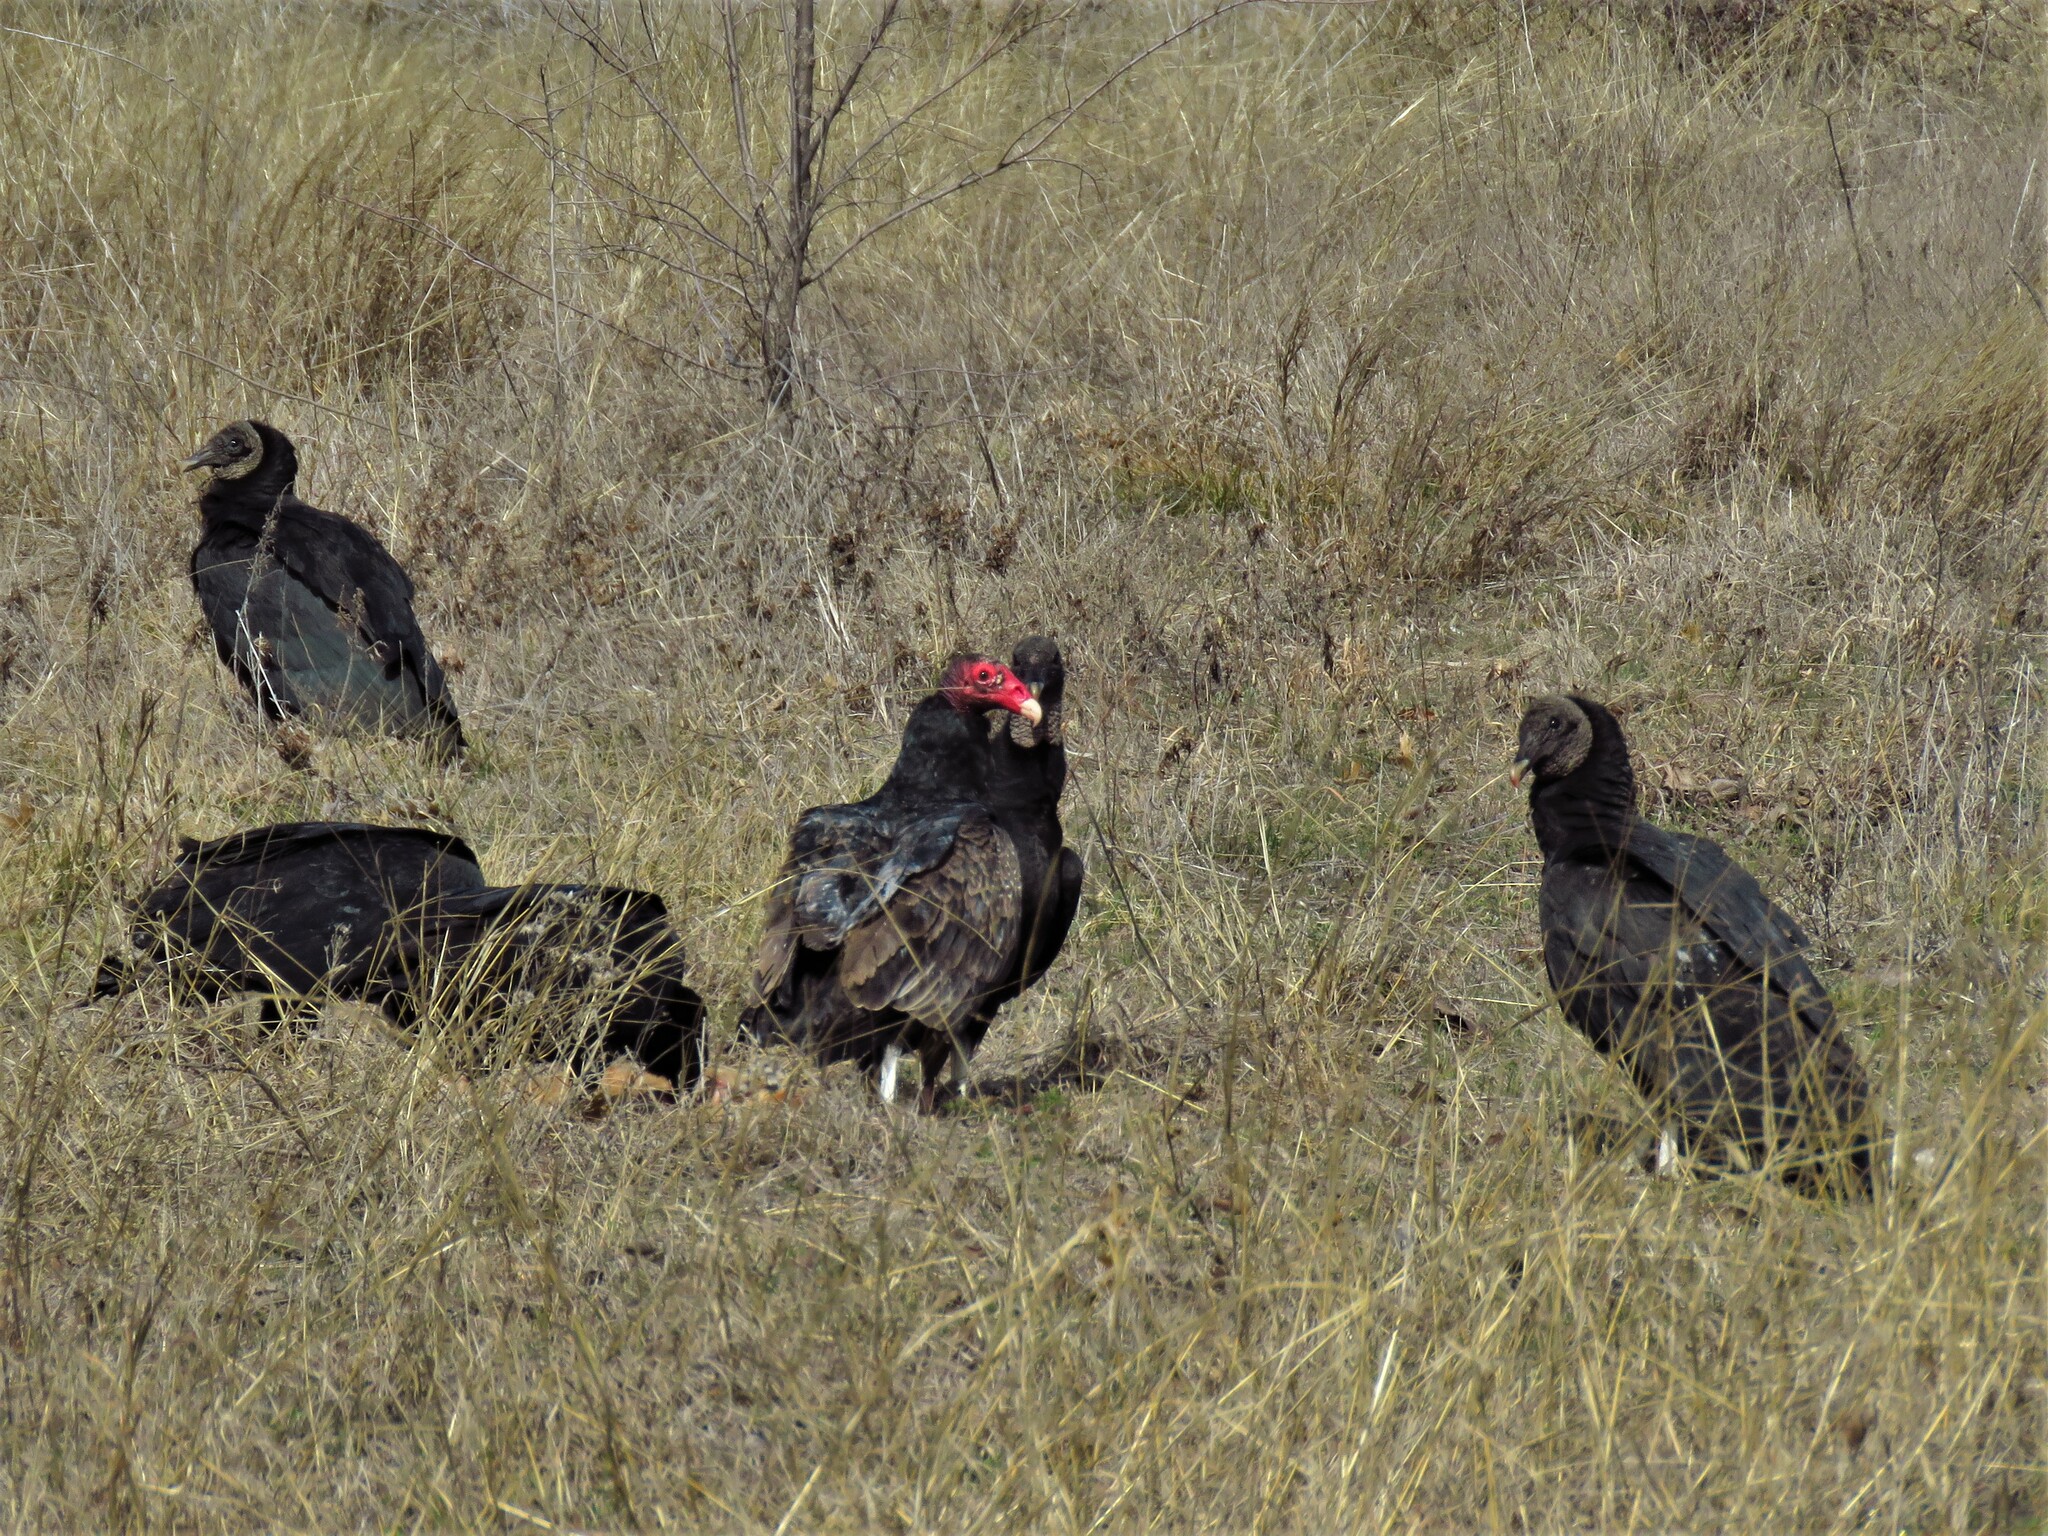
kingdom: Animalia
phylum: Chordata
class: Aves
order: Accipitriformes
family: Cathartidae
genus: Cathartes
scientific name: Cathartes aura
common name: Turkey vulture
